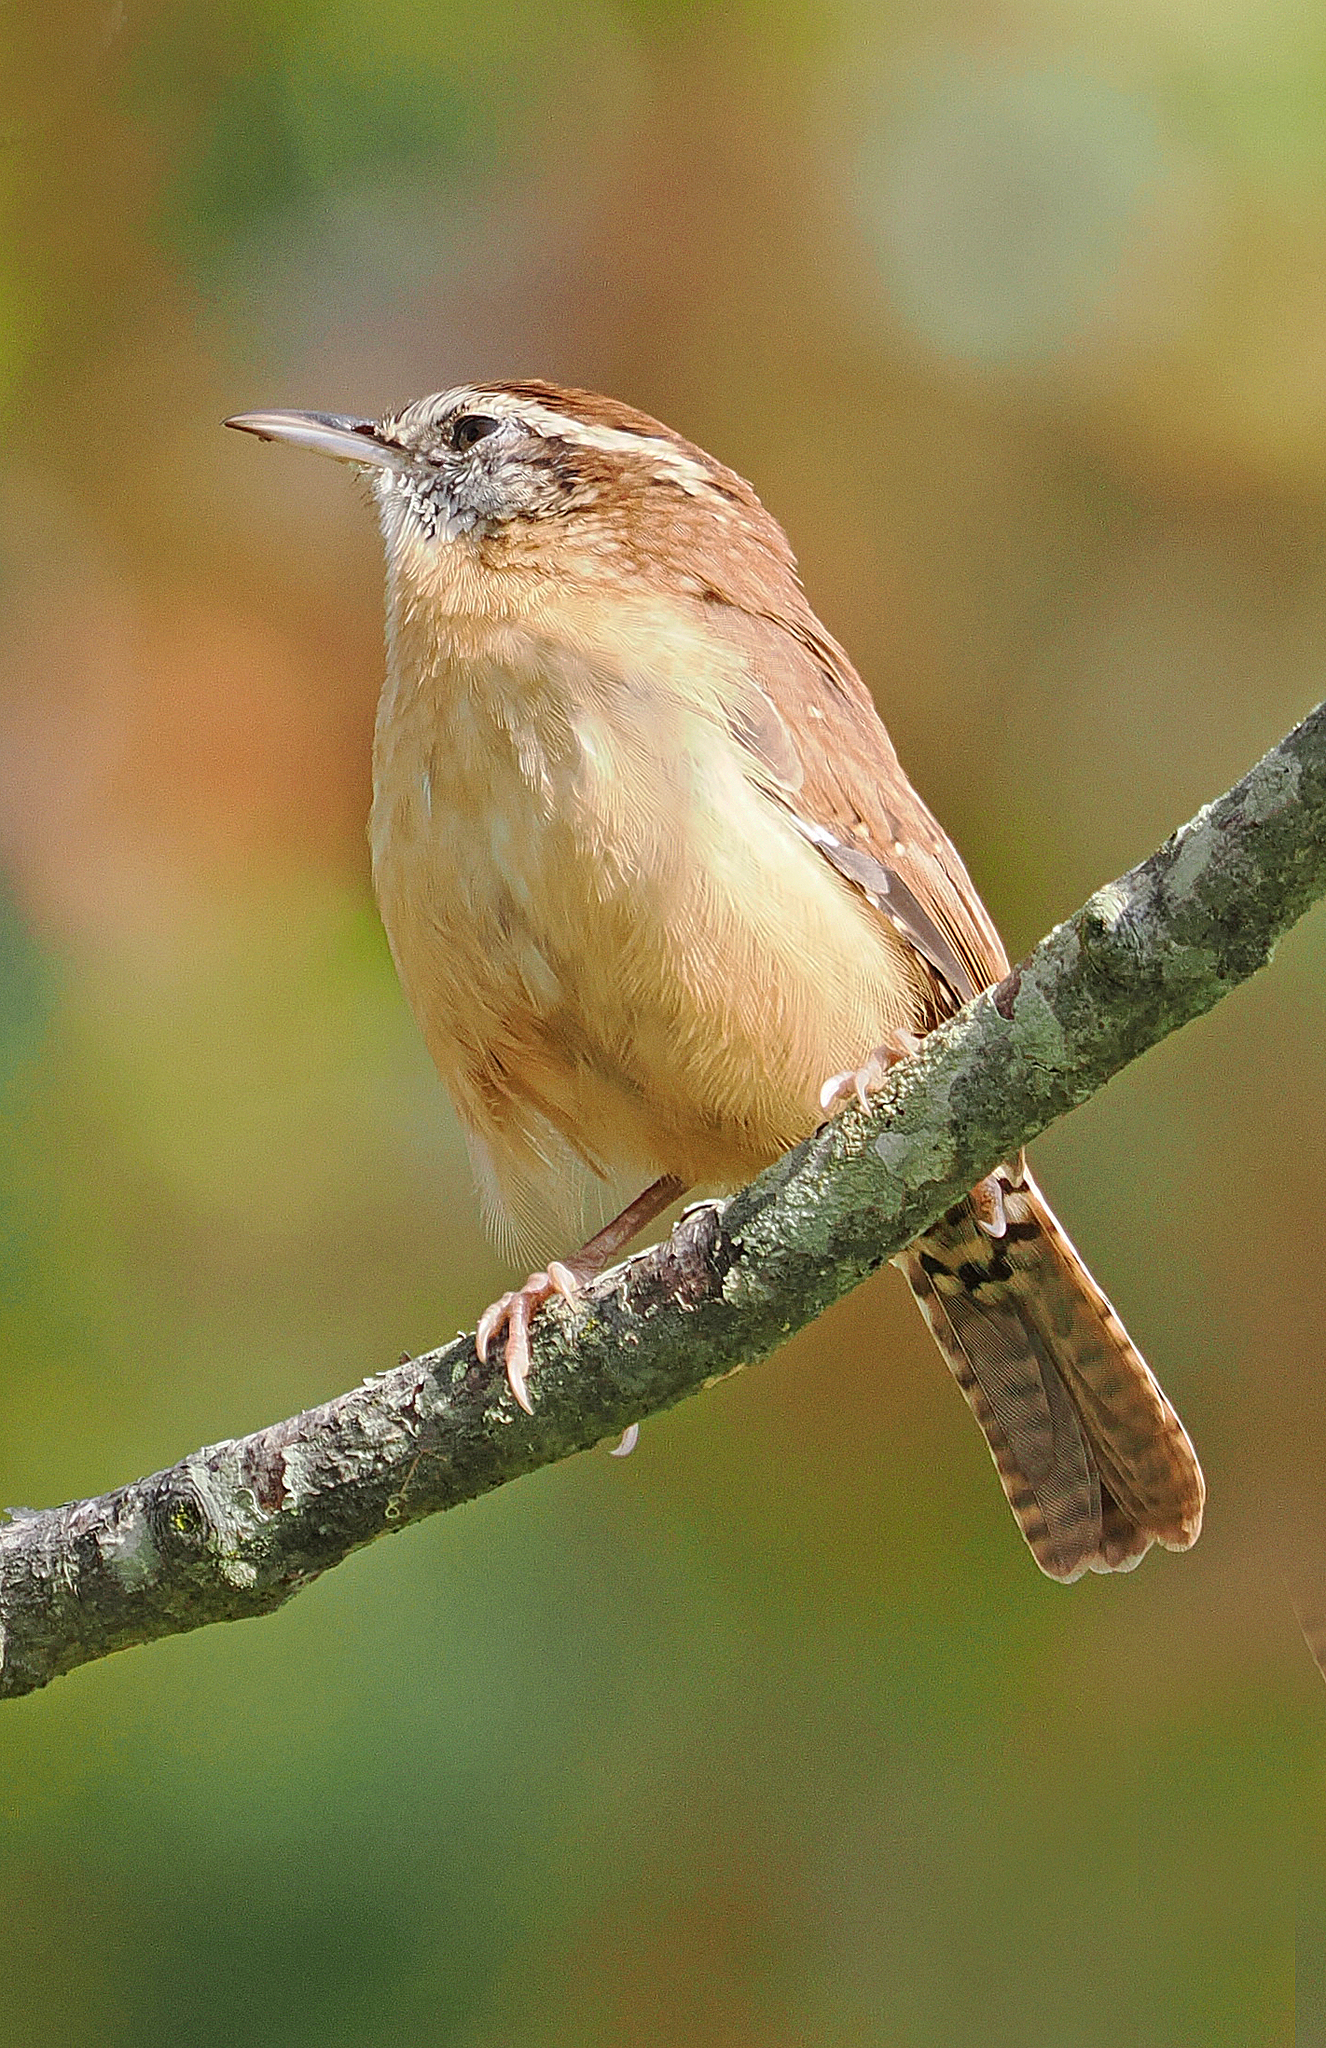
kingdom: Animalia
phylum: Chordata
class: Aves
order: Passeriformes
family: Troglodytidae
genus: Thryothorus
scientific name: Thryothorus ludovicianus
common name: Carolina wren
